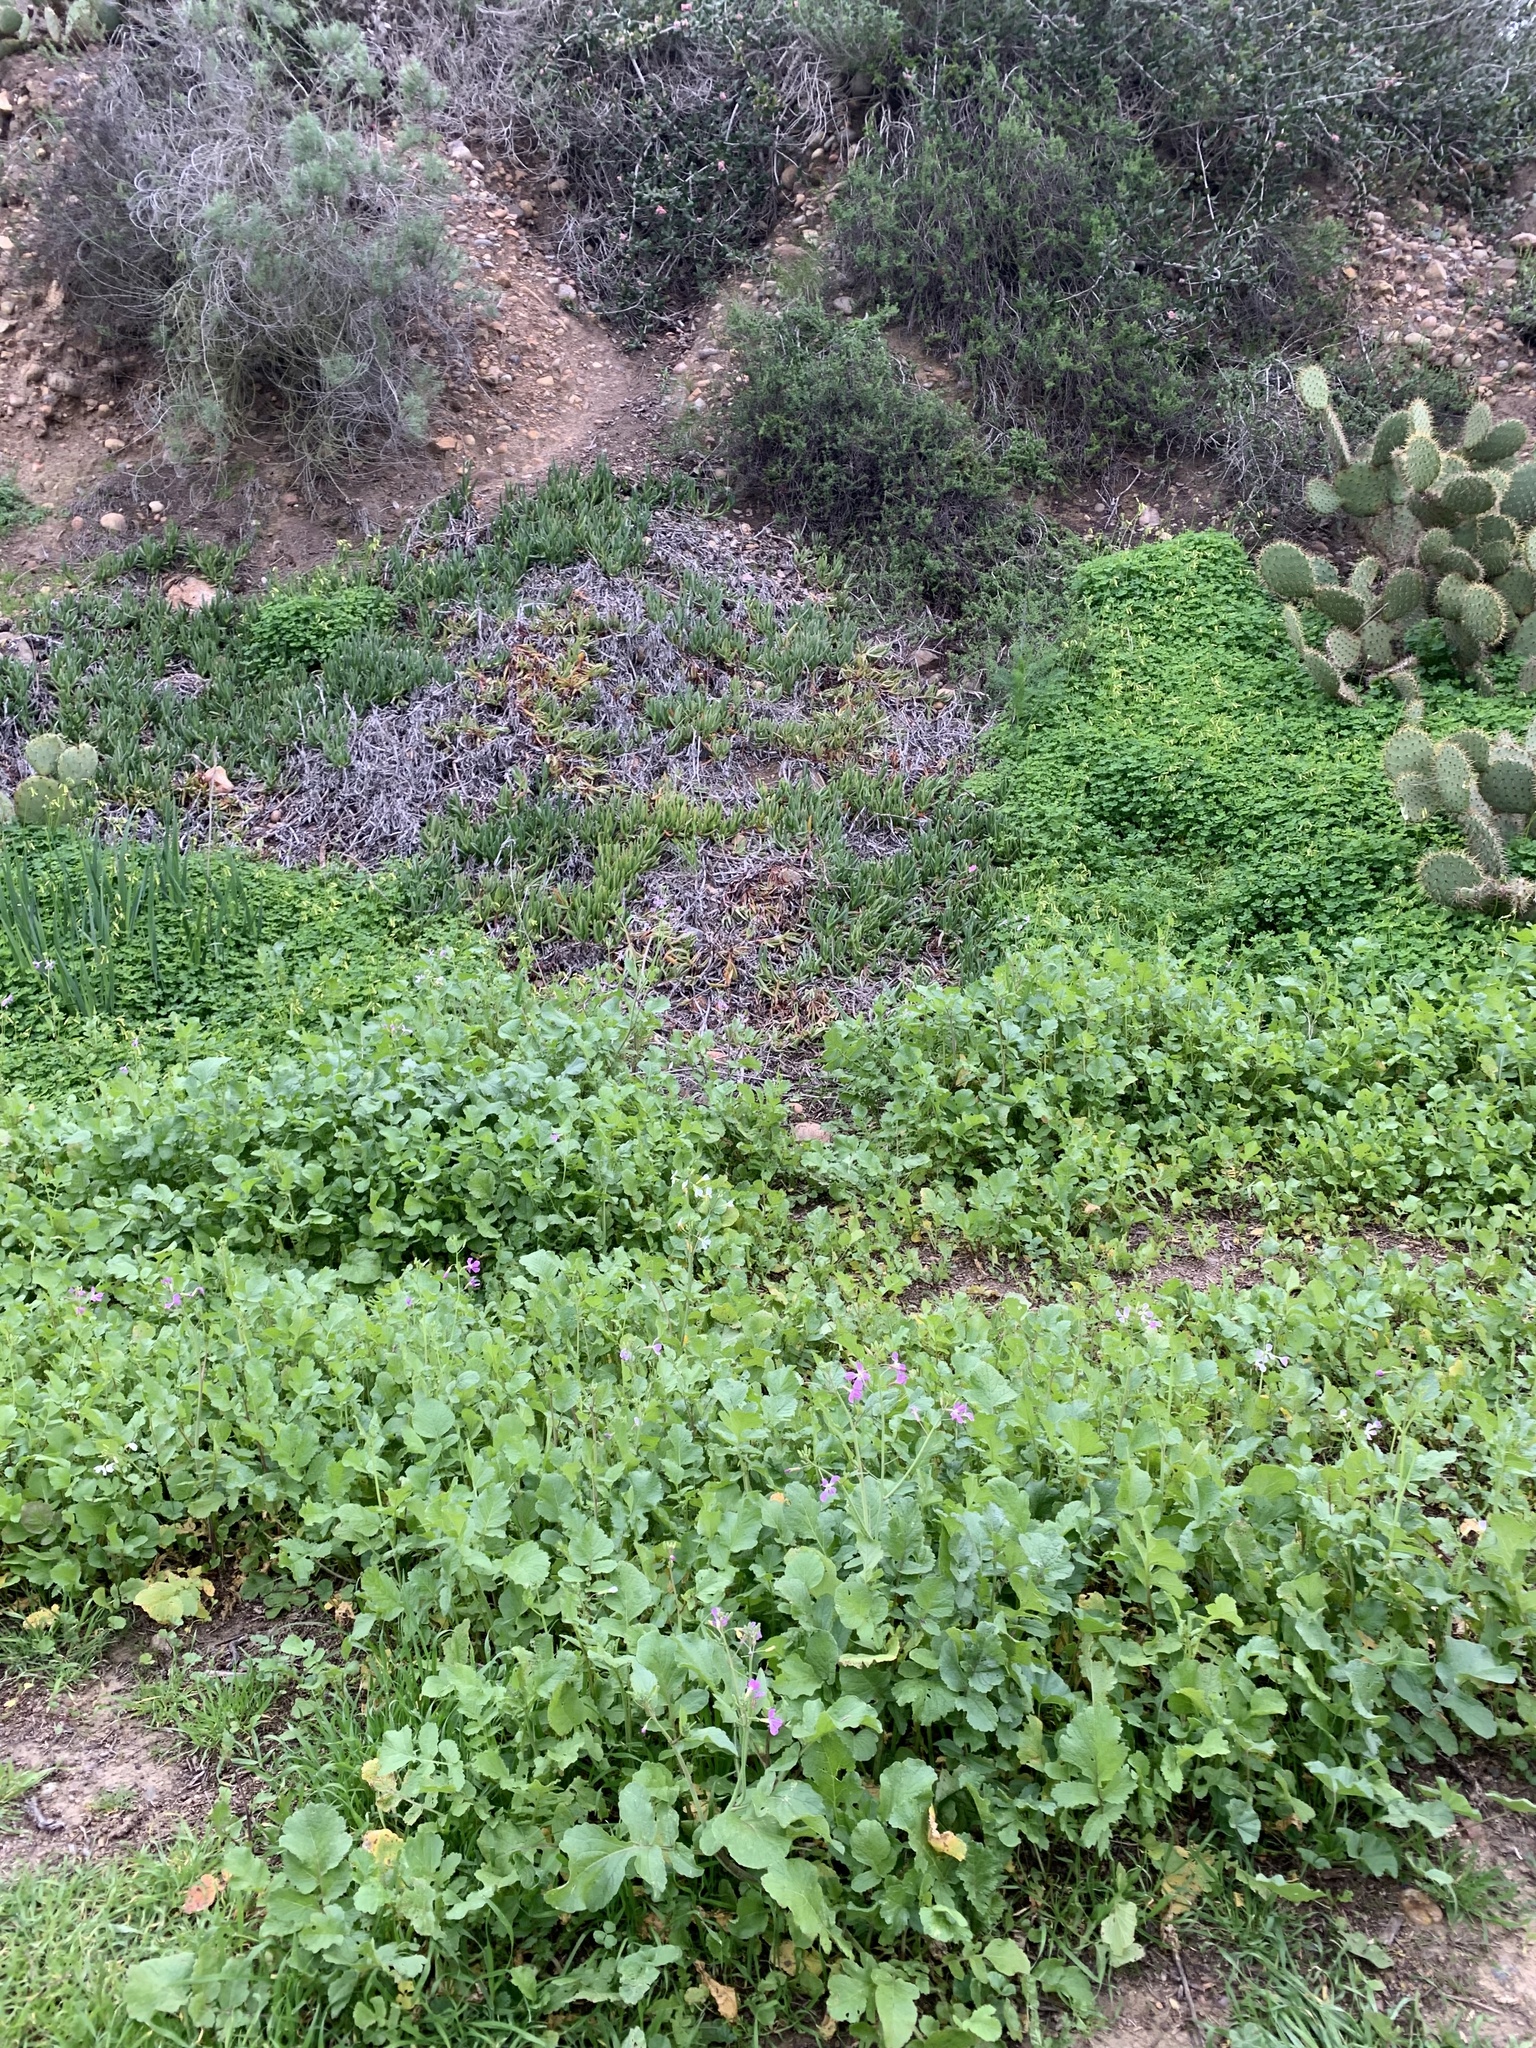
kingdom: Plantae
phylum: Tracheophyta
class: Magnoliopsida
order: Brassicales
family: Brassicaceae
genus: Raphanus
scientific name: Raphanus sativus
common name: Cultivated radish
